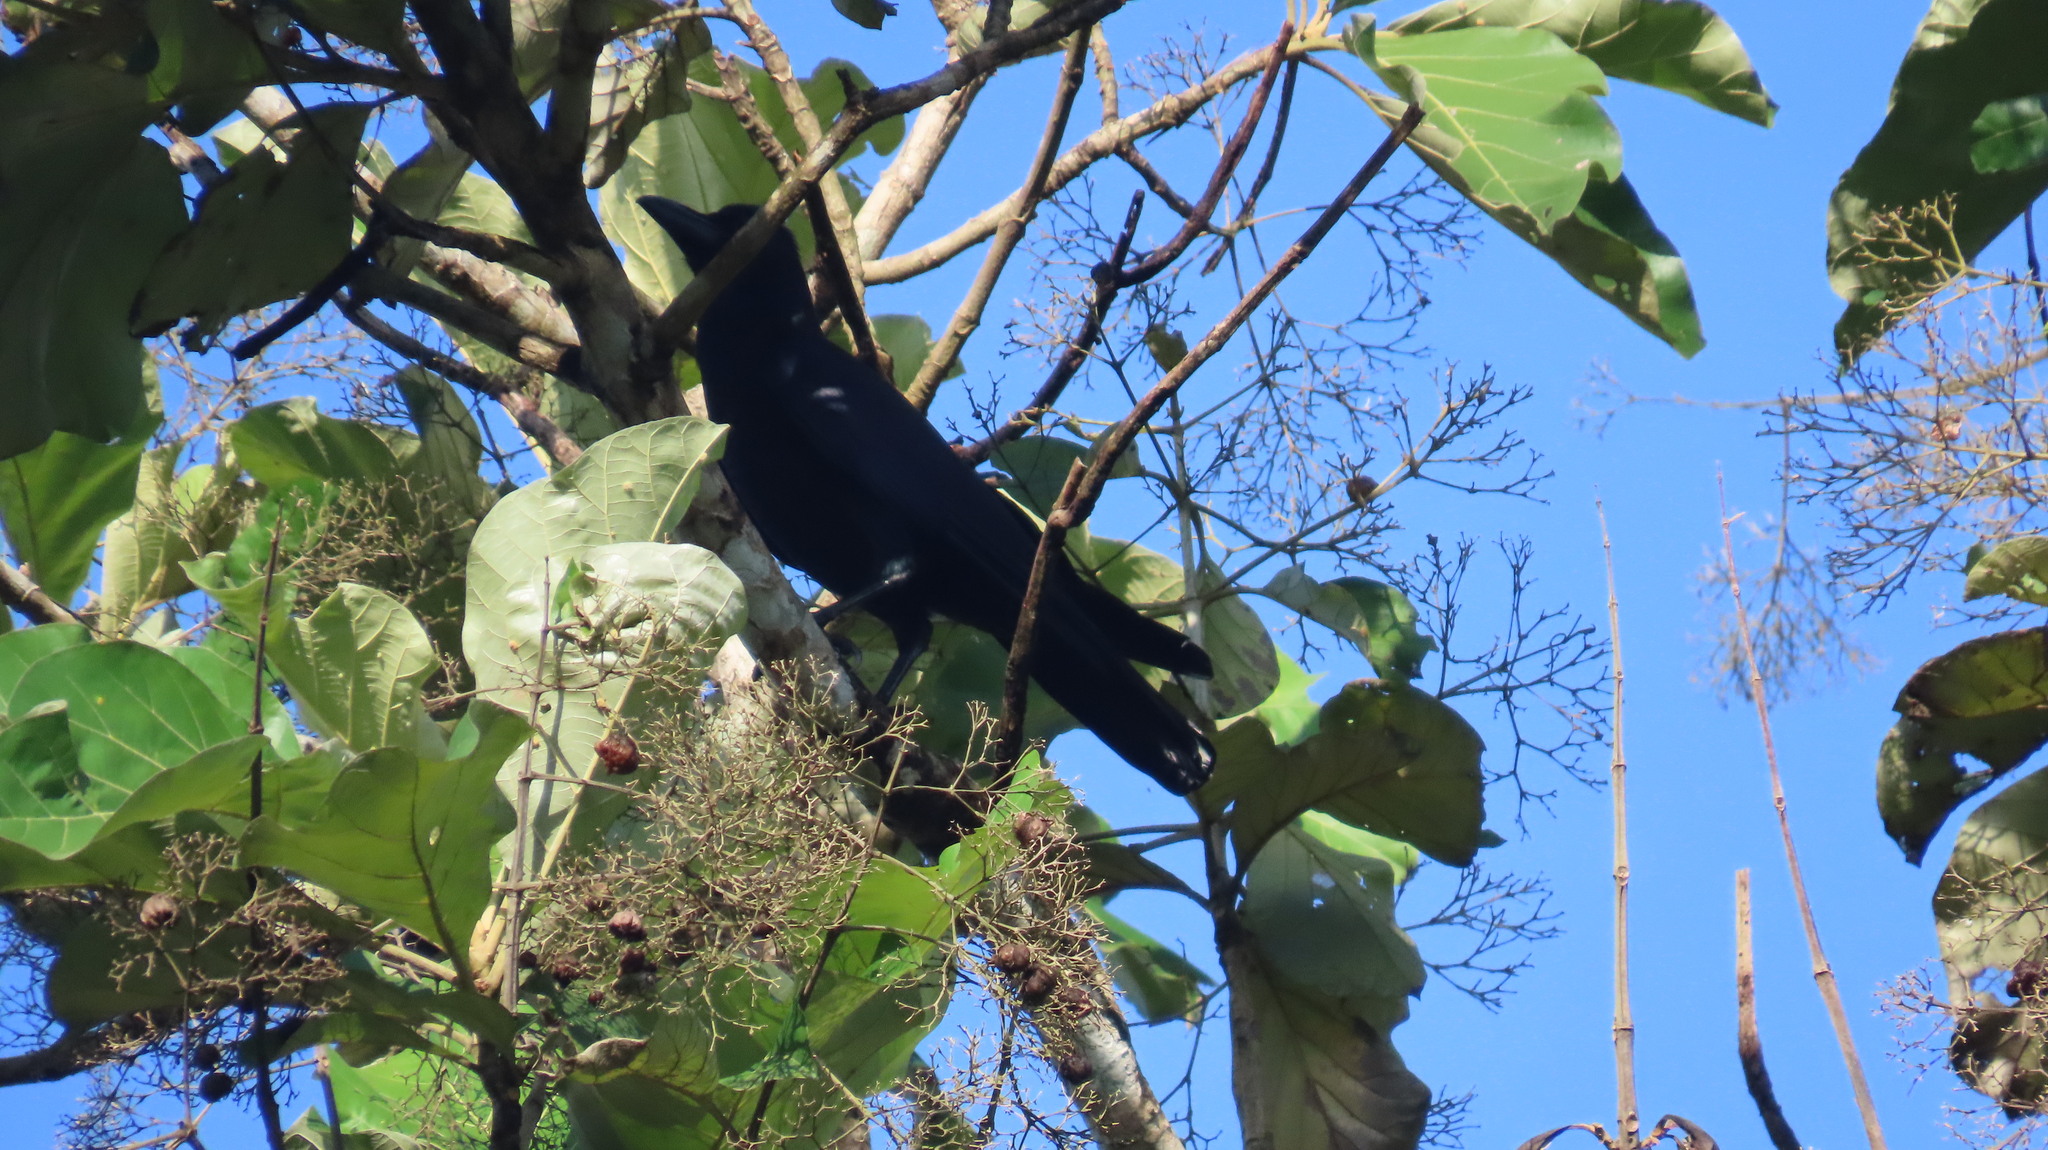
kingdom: Animalia
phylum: Chordata
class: Aves
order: Passeriformes
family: Corvidae
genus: Corvus
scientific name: Corvus macrorhynchos
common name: Large-billed crow
